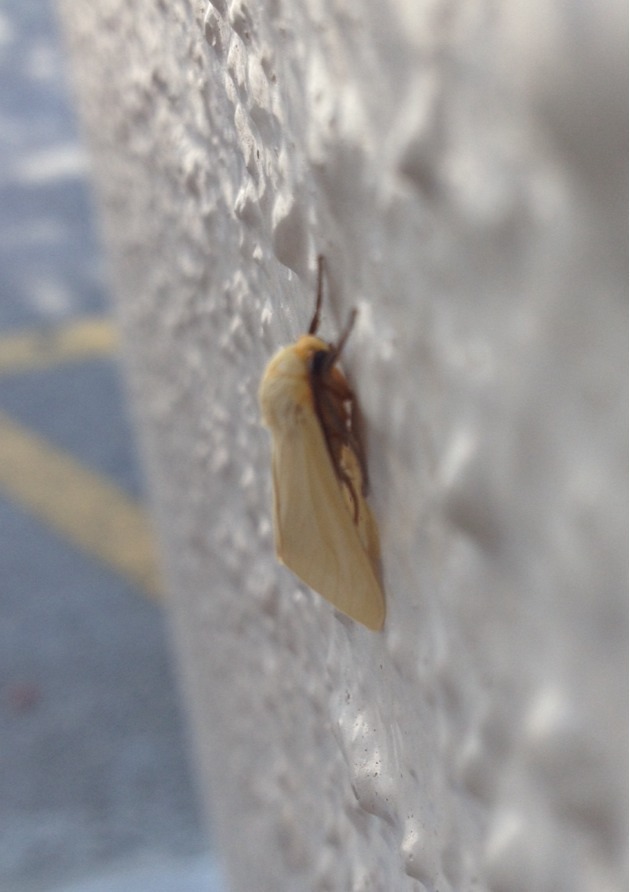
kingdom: Animalia
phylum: Arthropoda
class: Insecta
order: Lepidoptera
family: Erebidae
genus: Pareuchaetes
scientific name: Pareuchaetes insulata
